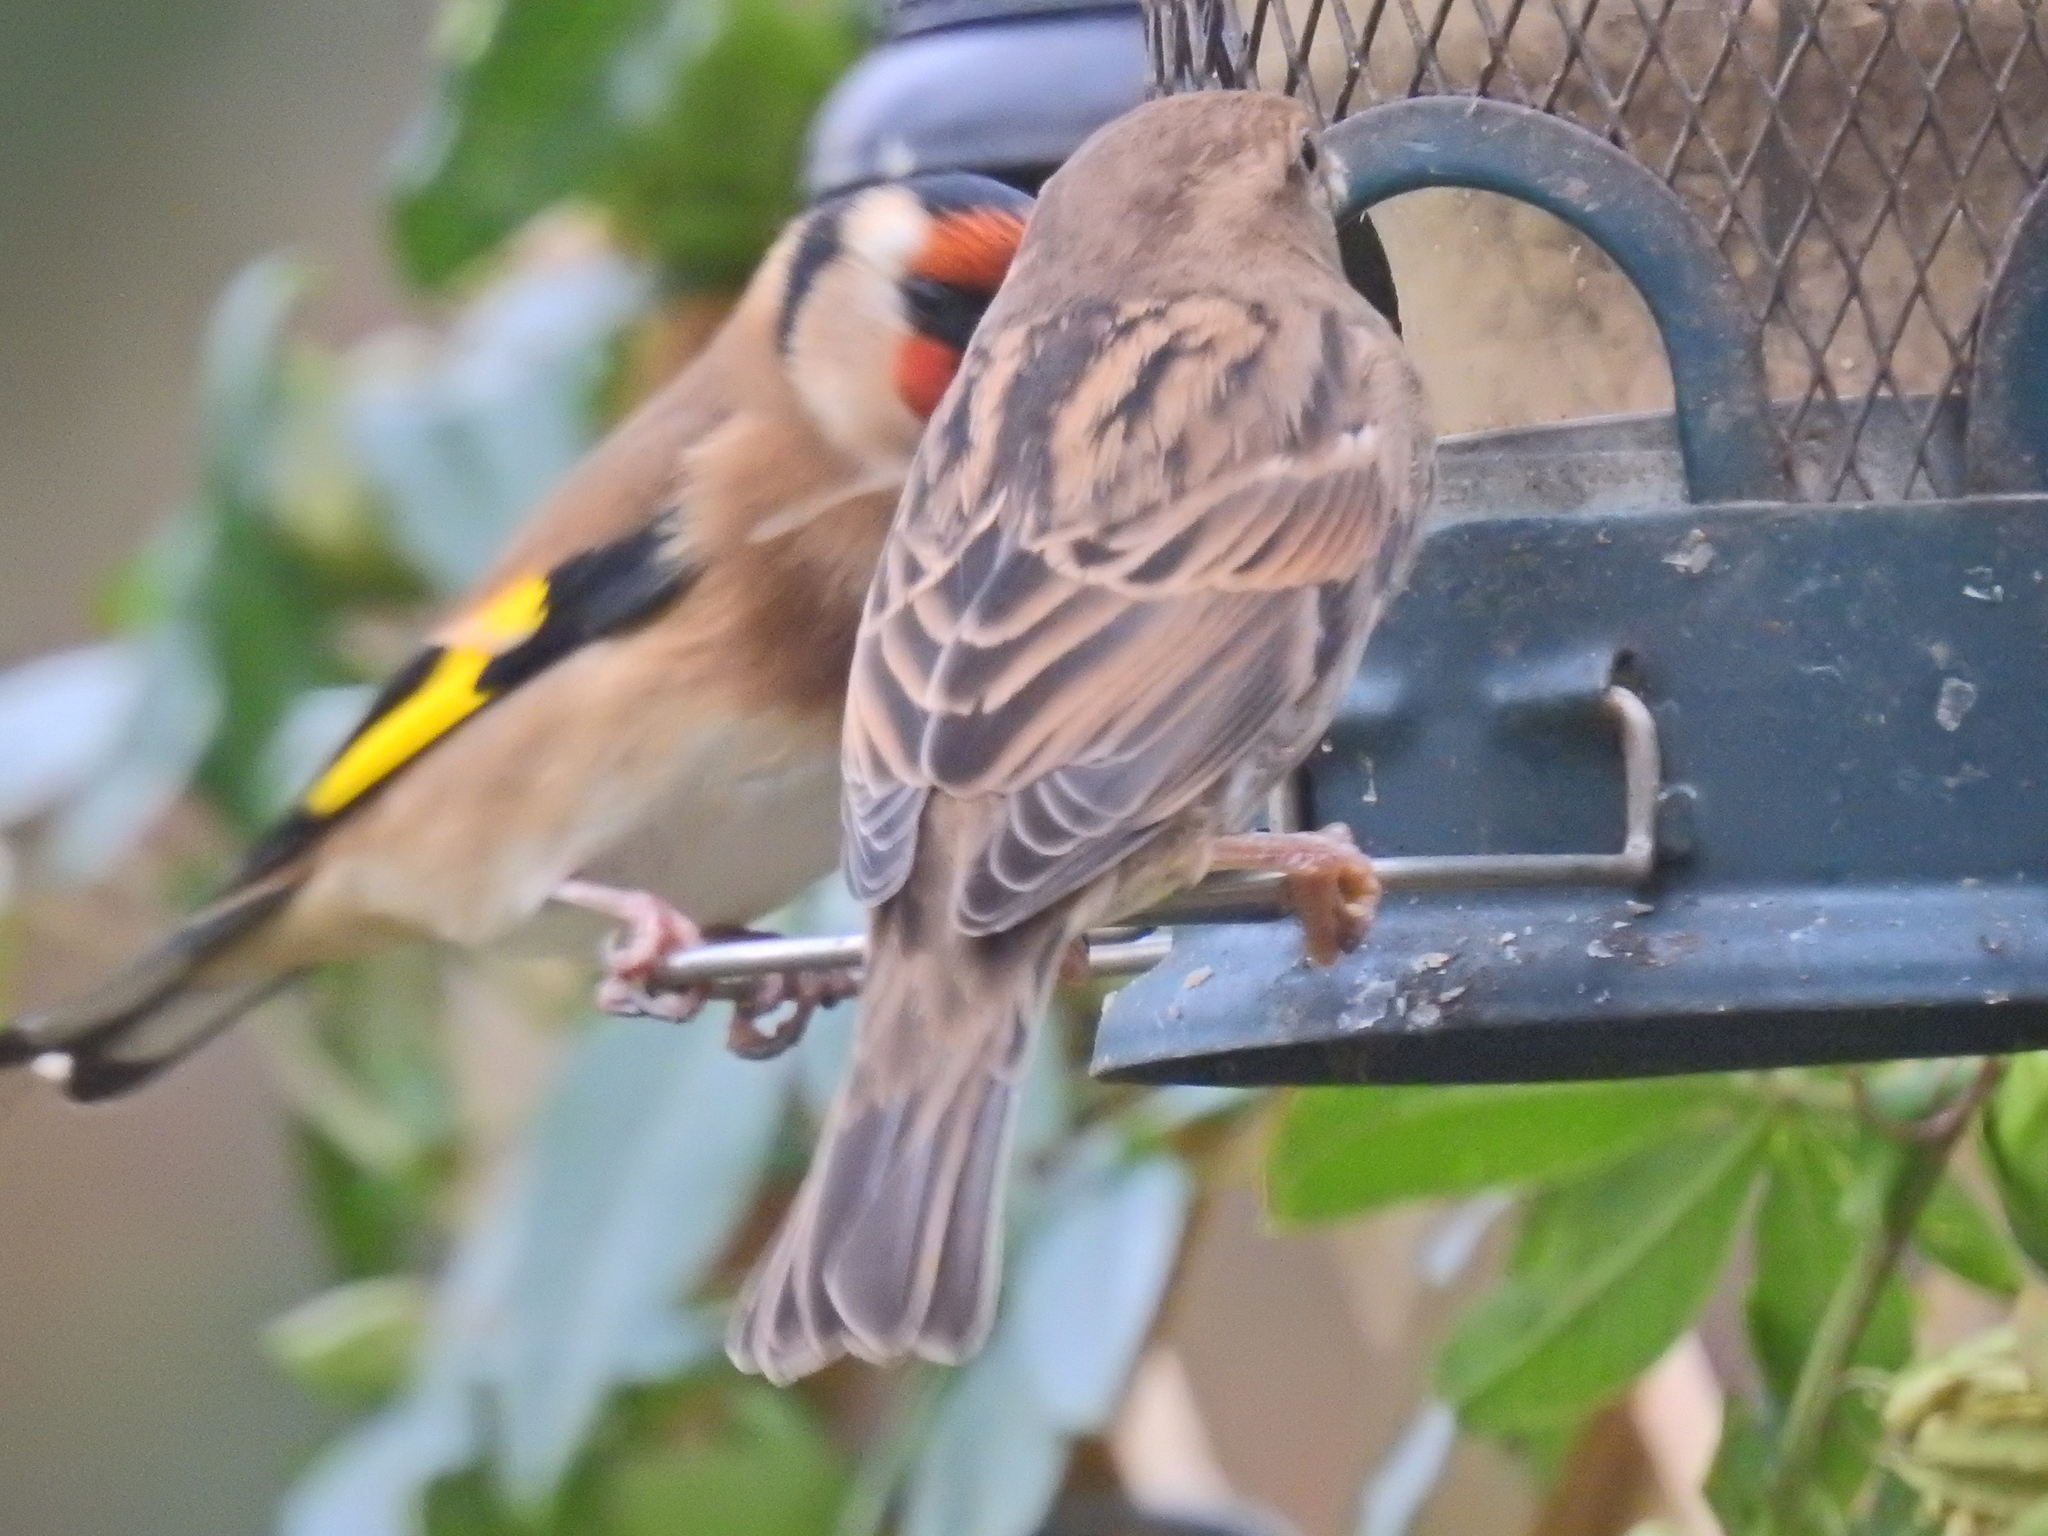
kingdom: Animalia
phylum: Chordata
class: Aves
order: Passeriformes
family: Passeridae
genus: Passer
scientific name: Passer domesticus
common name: House sparrow
